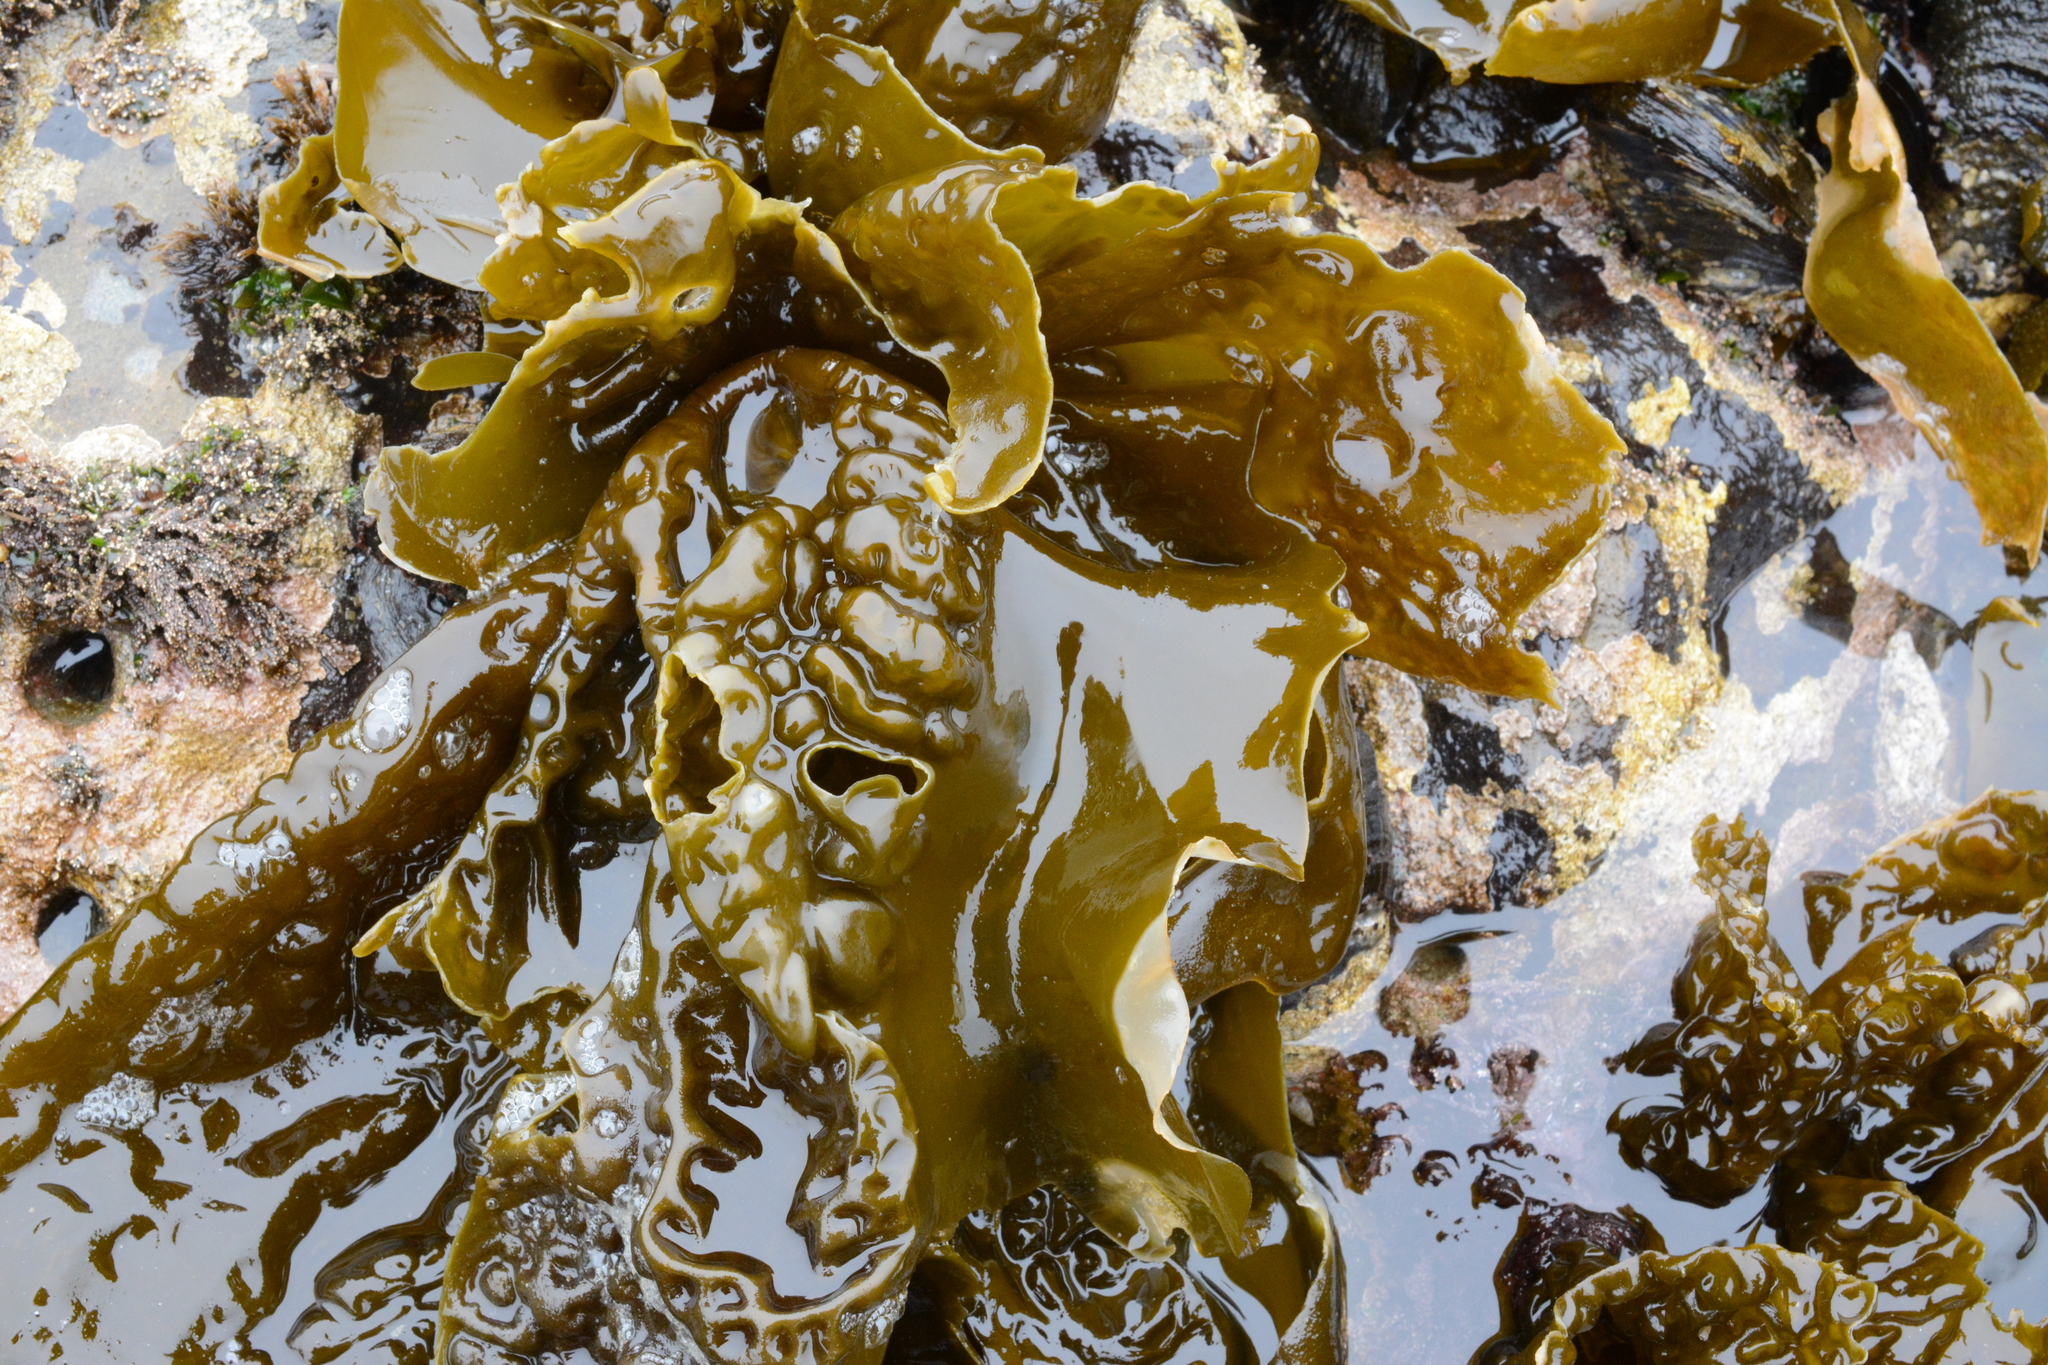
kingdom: Chromista
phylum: Ochrophyta
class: Phaeophyceae
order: Laminariales
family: Laminariaceae
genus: Hedophyllum
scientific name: Hedophyllum sessile
